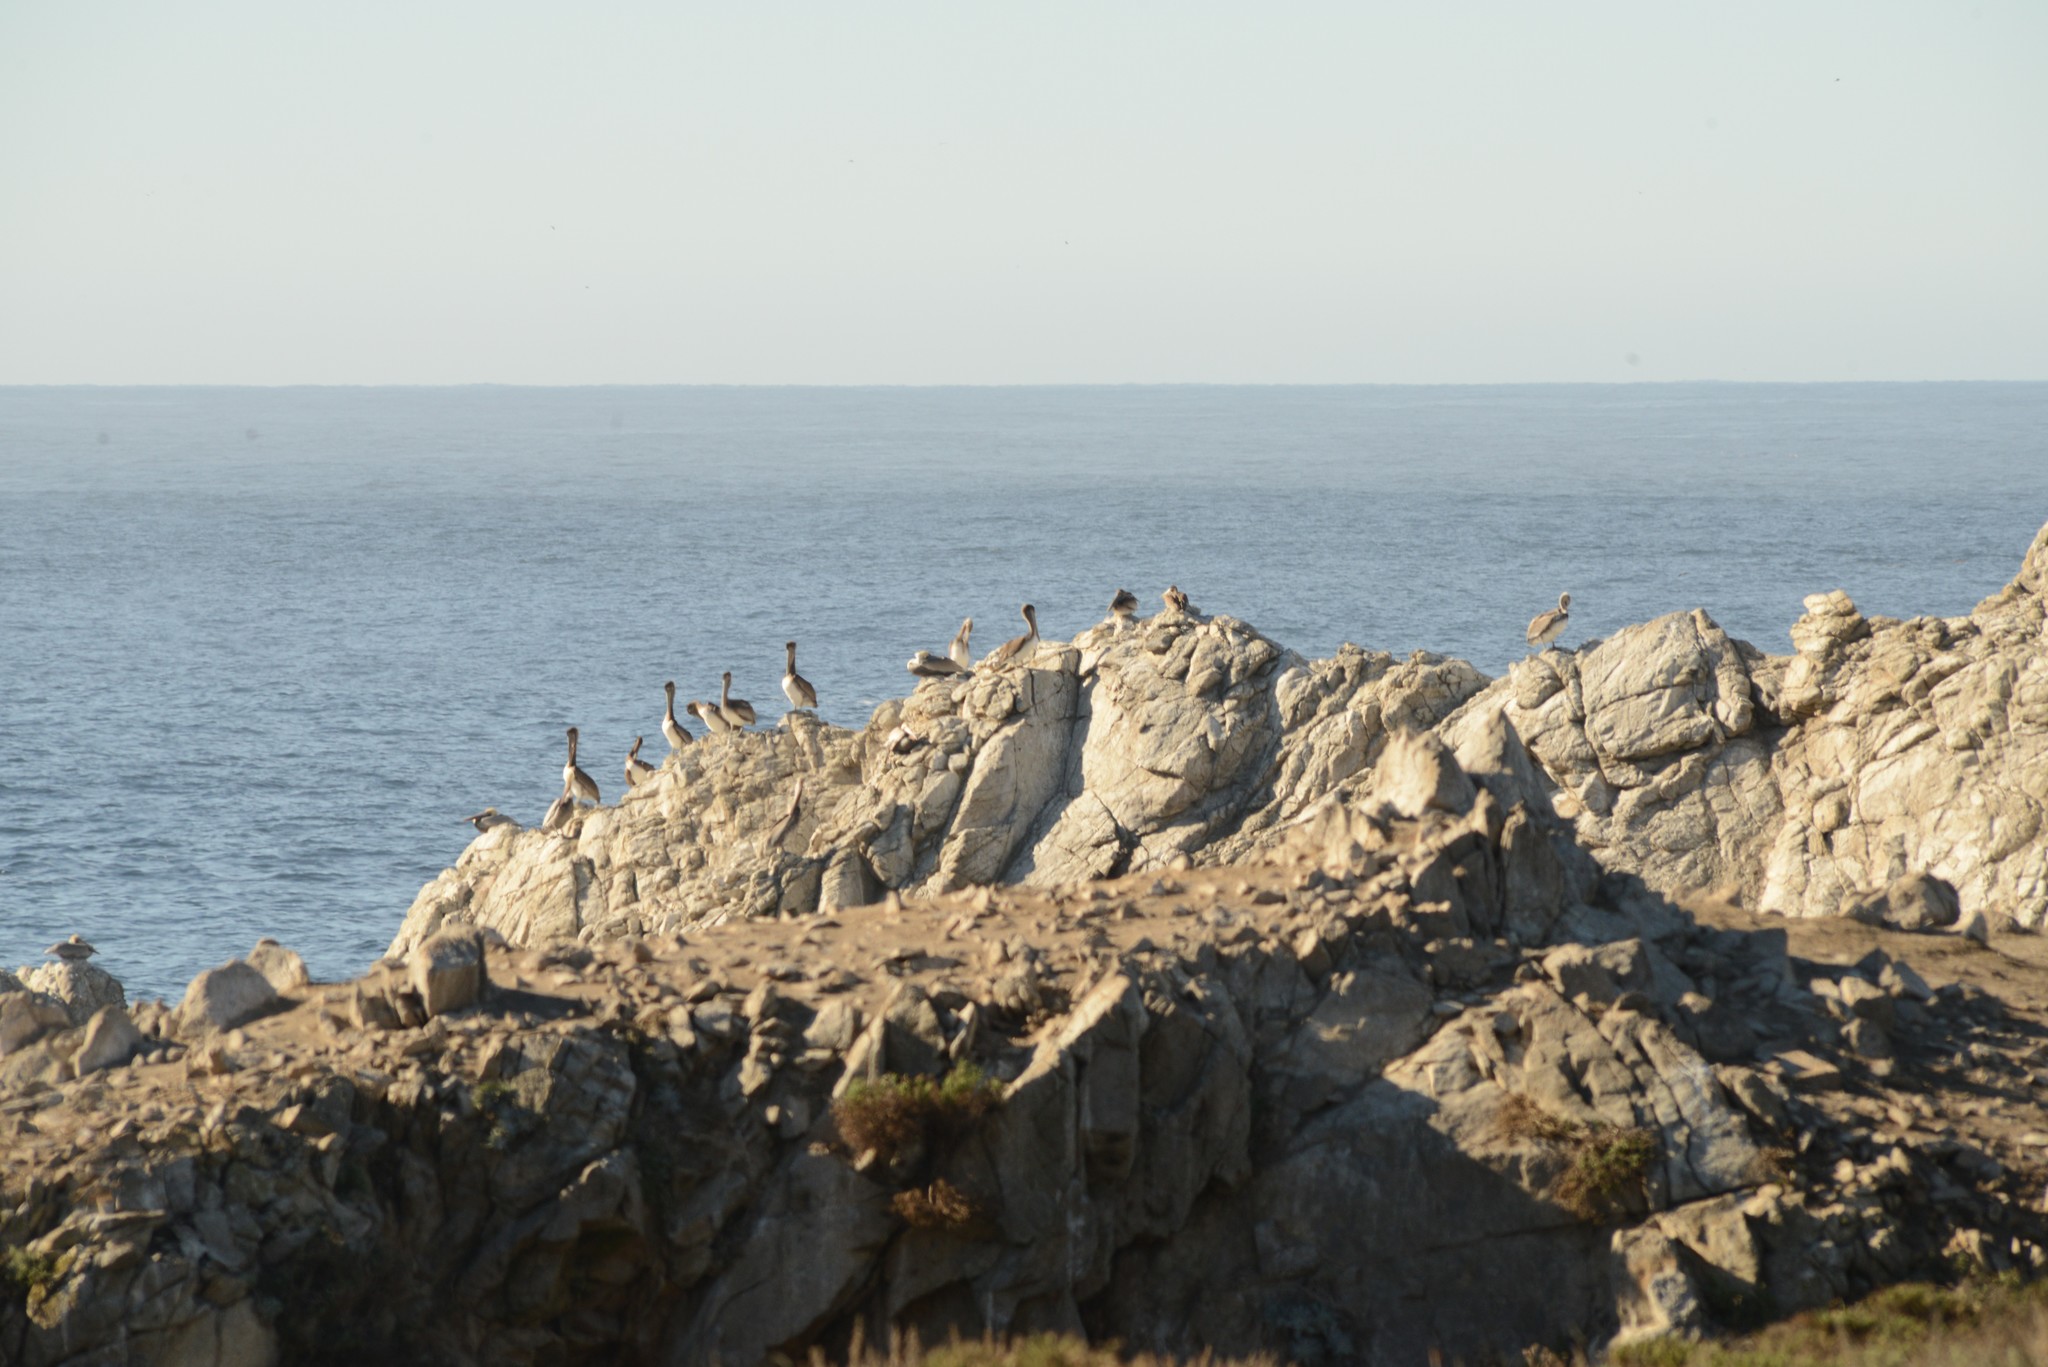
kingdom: Animalia
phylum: Chordata
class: Aves
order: Pelecaniformes
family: Pelecanidae
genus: Pelecanus
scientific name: Pelecanus occidentalis
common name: Brown pelican
